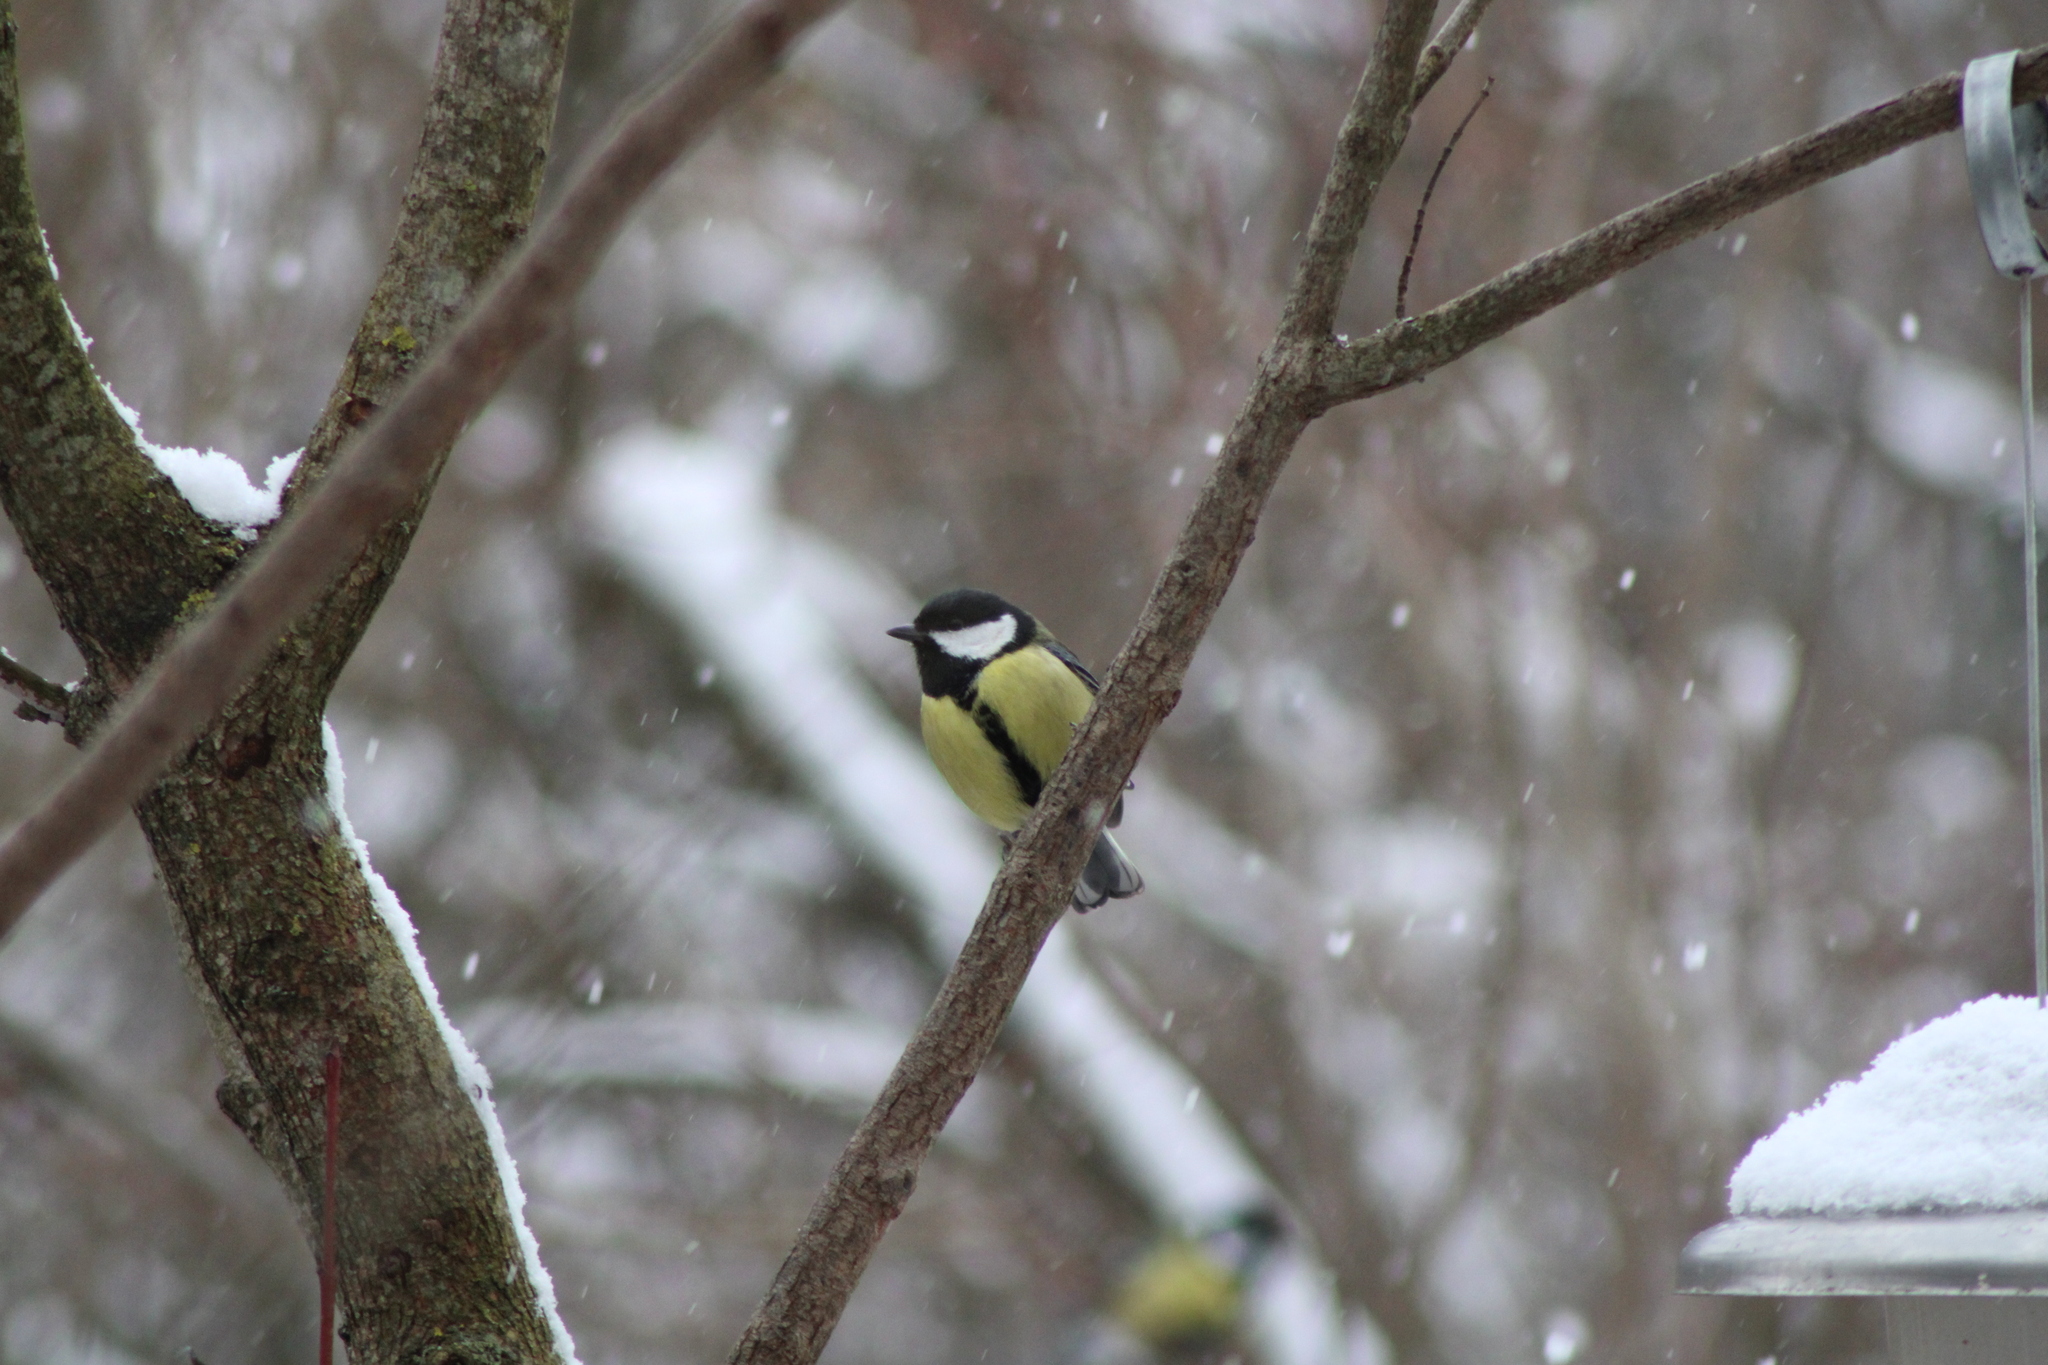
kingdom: Animalia
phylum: Chordata
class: Aves
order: Passeriformes
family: Paridae
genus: Parus
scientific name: Parus major
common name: Great tit
